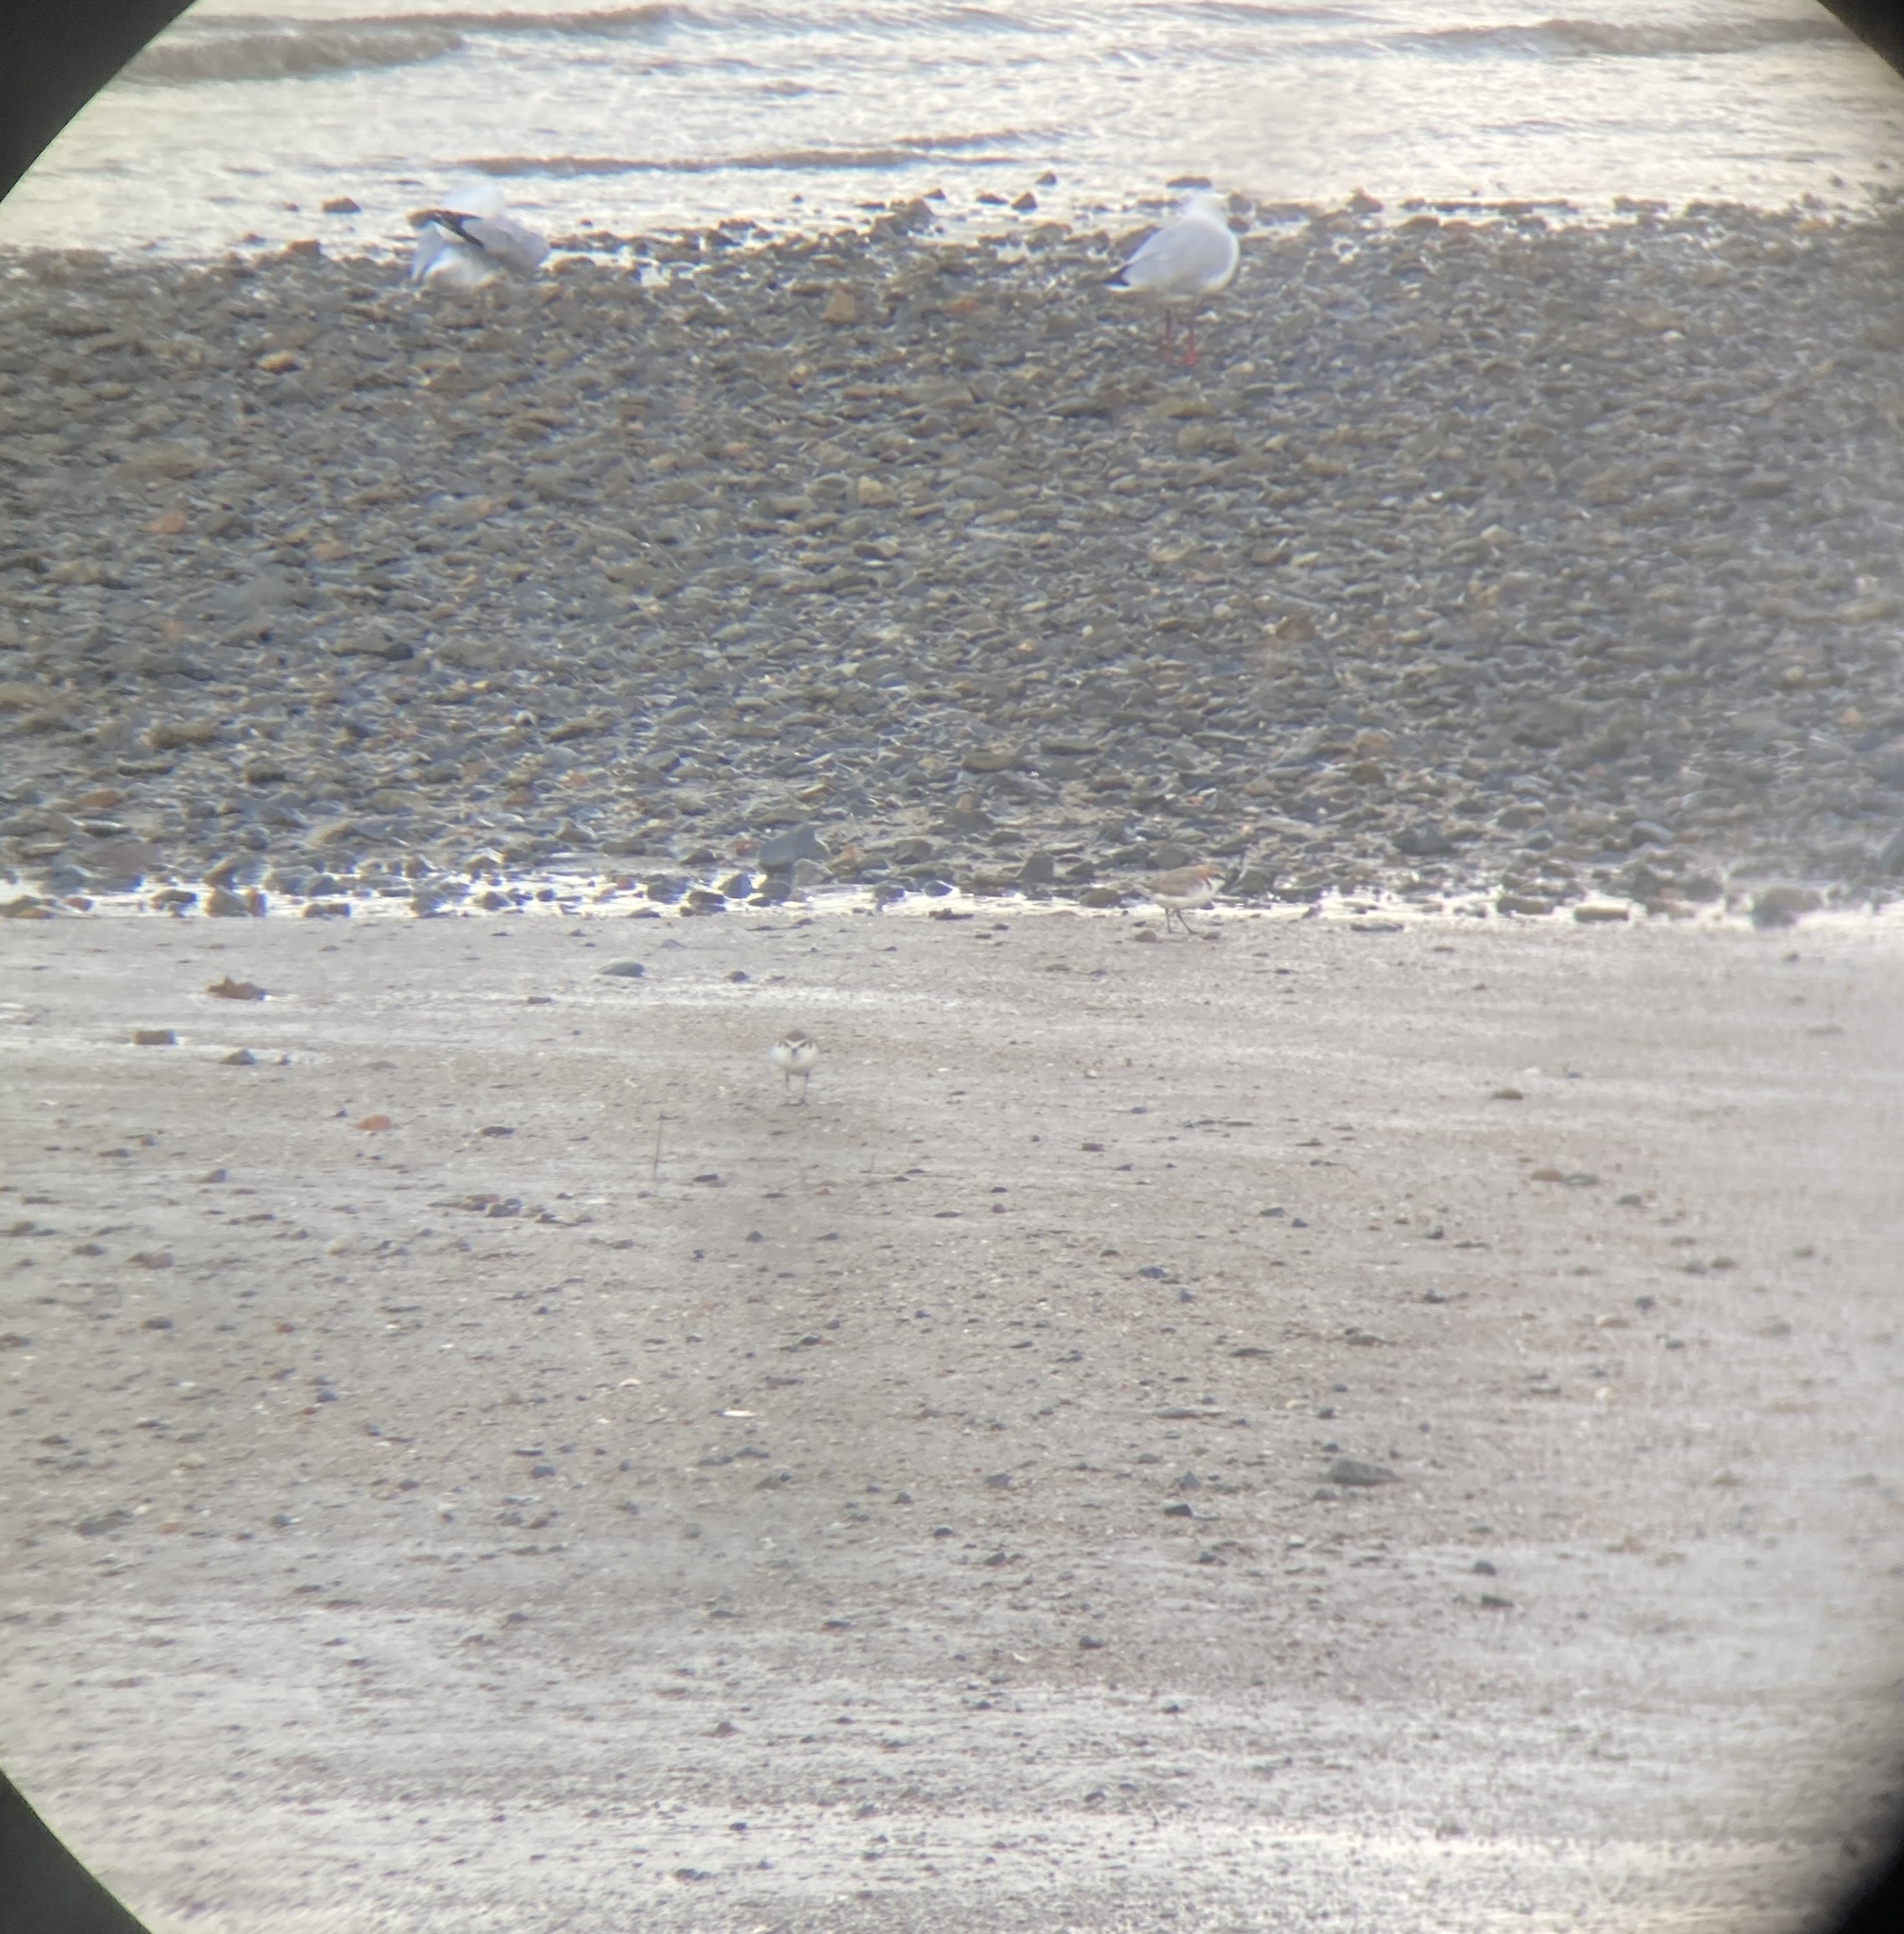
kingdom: Animalia
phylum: Chordata
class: Aves
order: Charadriiformes
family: Charadriidae
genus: Anarhynchus
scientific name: Anarhynchus
